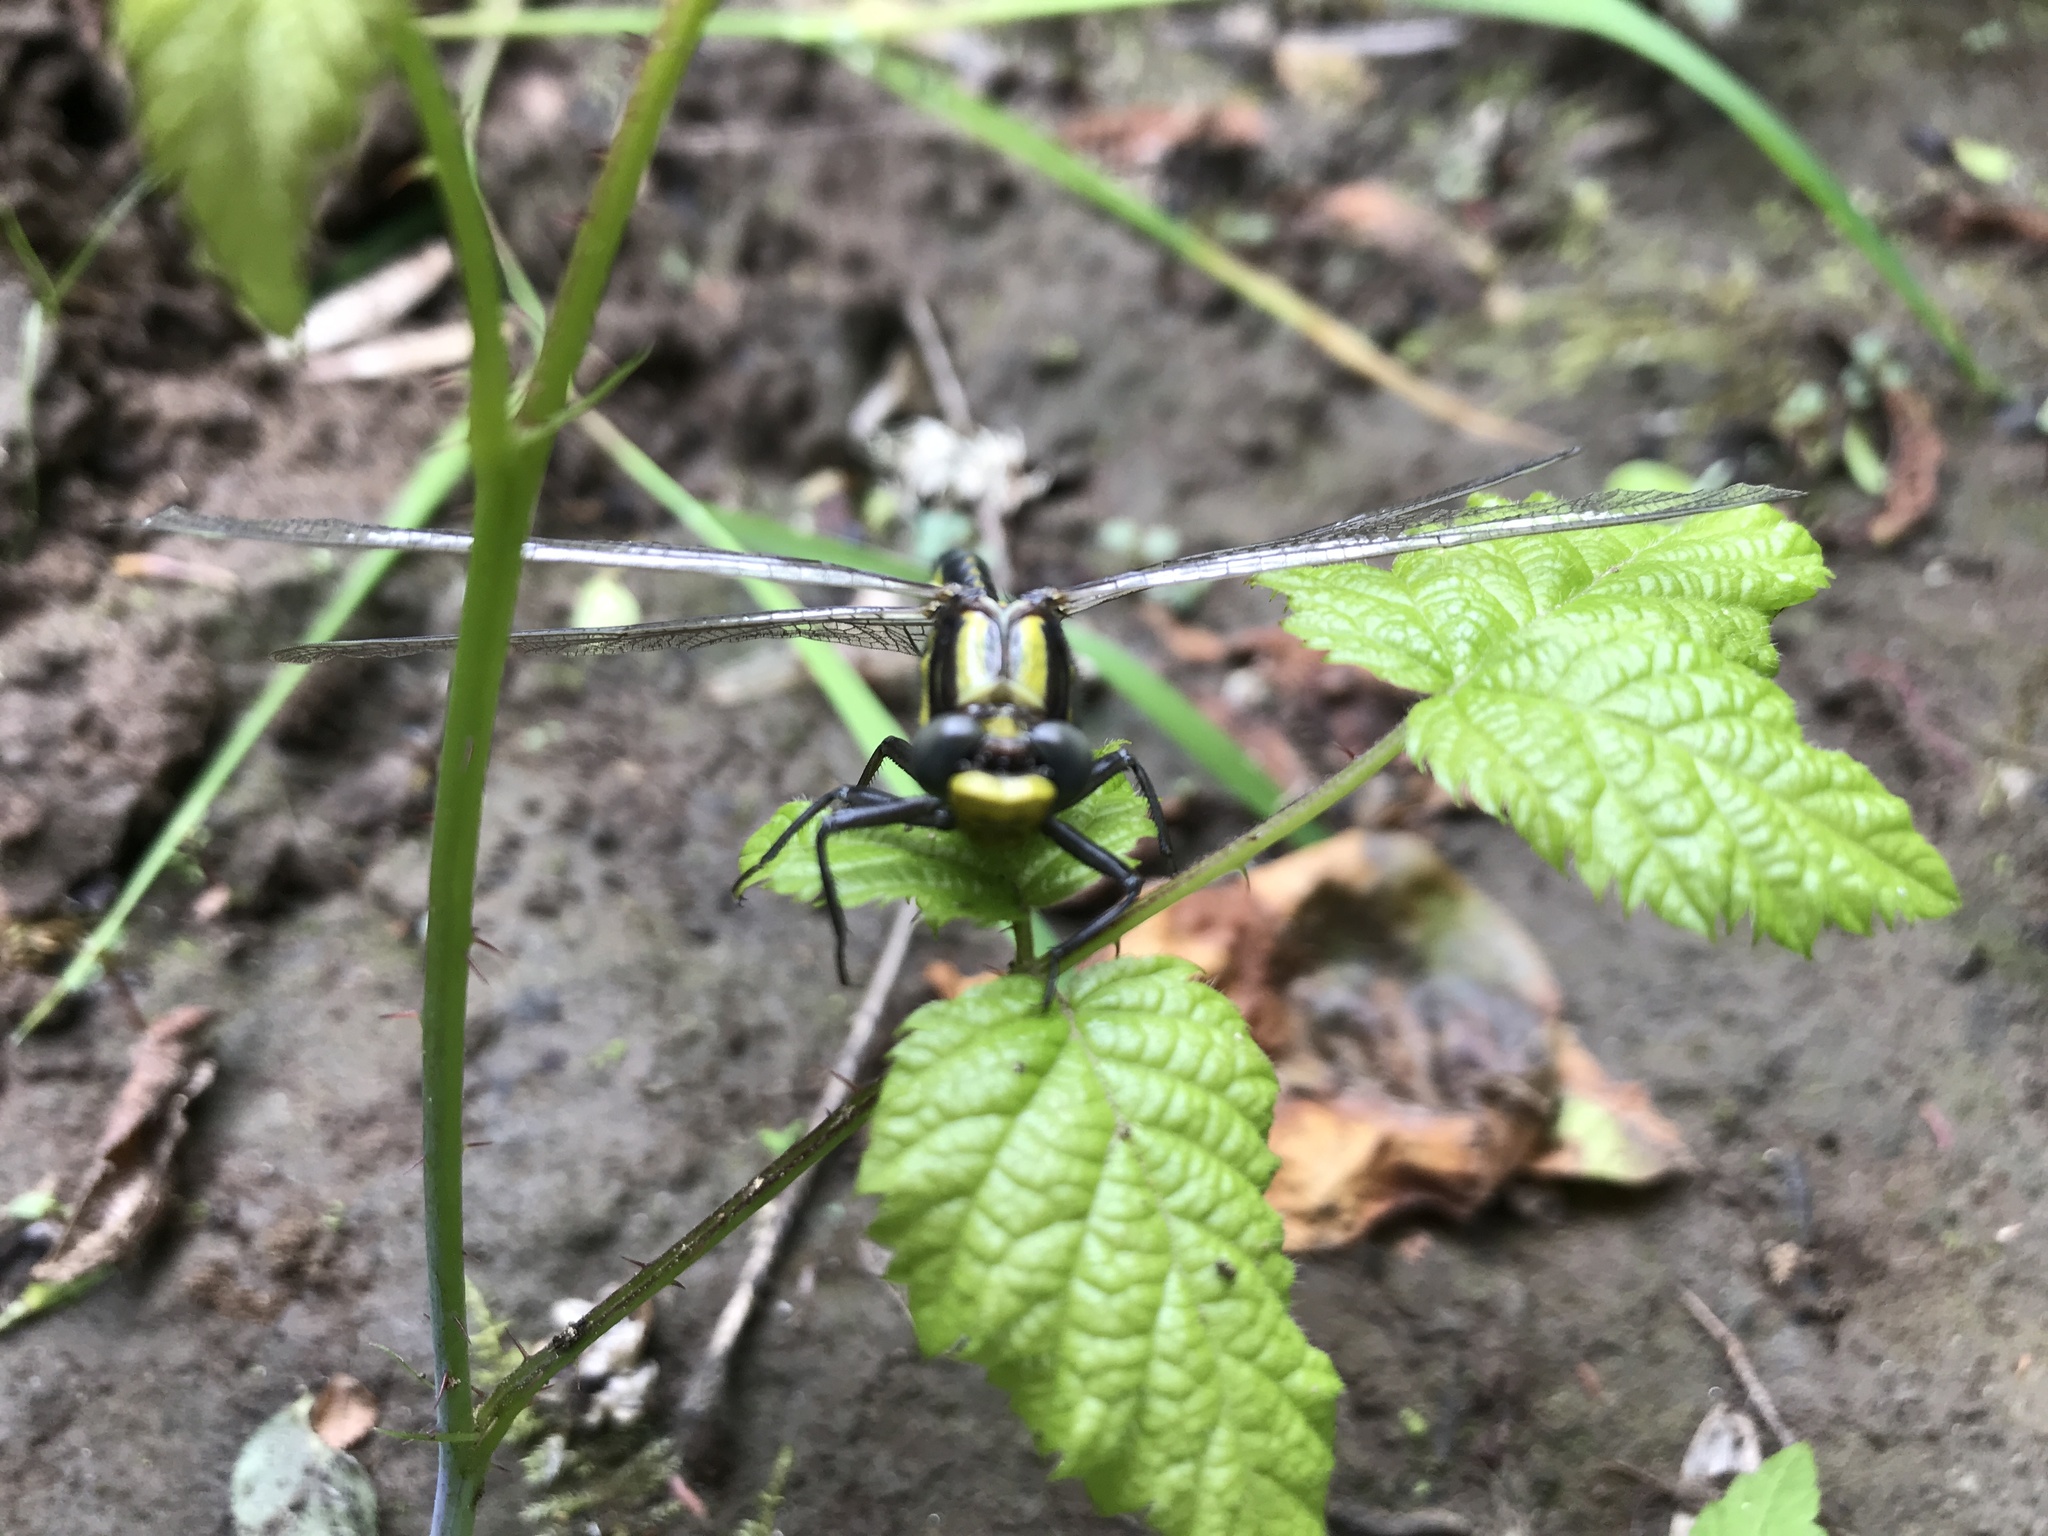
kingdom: Animalia
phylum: Arthropoda
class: Insecta
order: Odonata
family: Gomphidae
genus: Phanogomphus
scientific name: Phanogomphus kurilis
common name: Pacific clubtail
